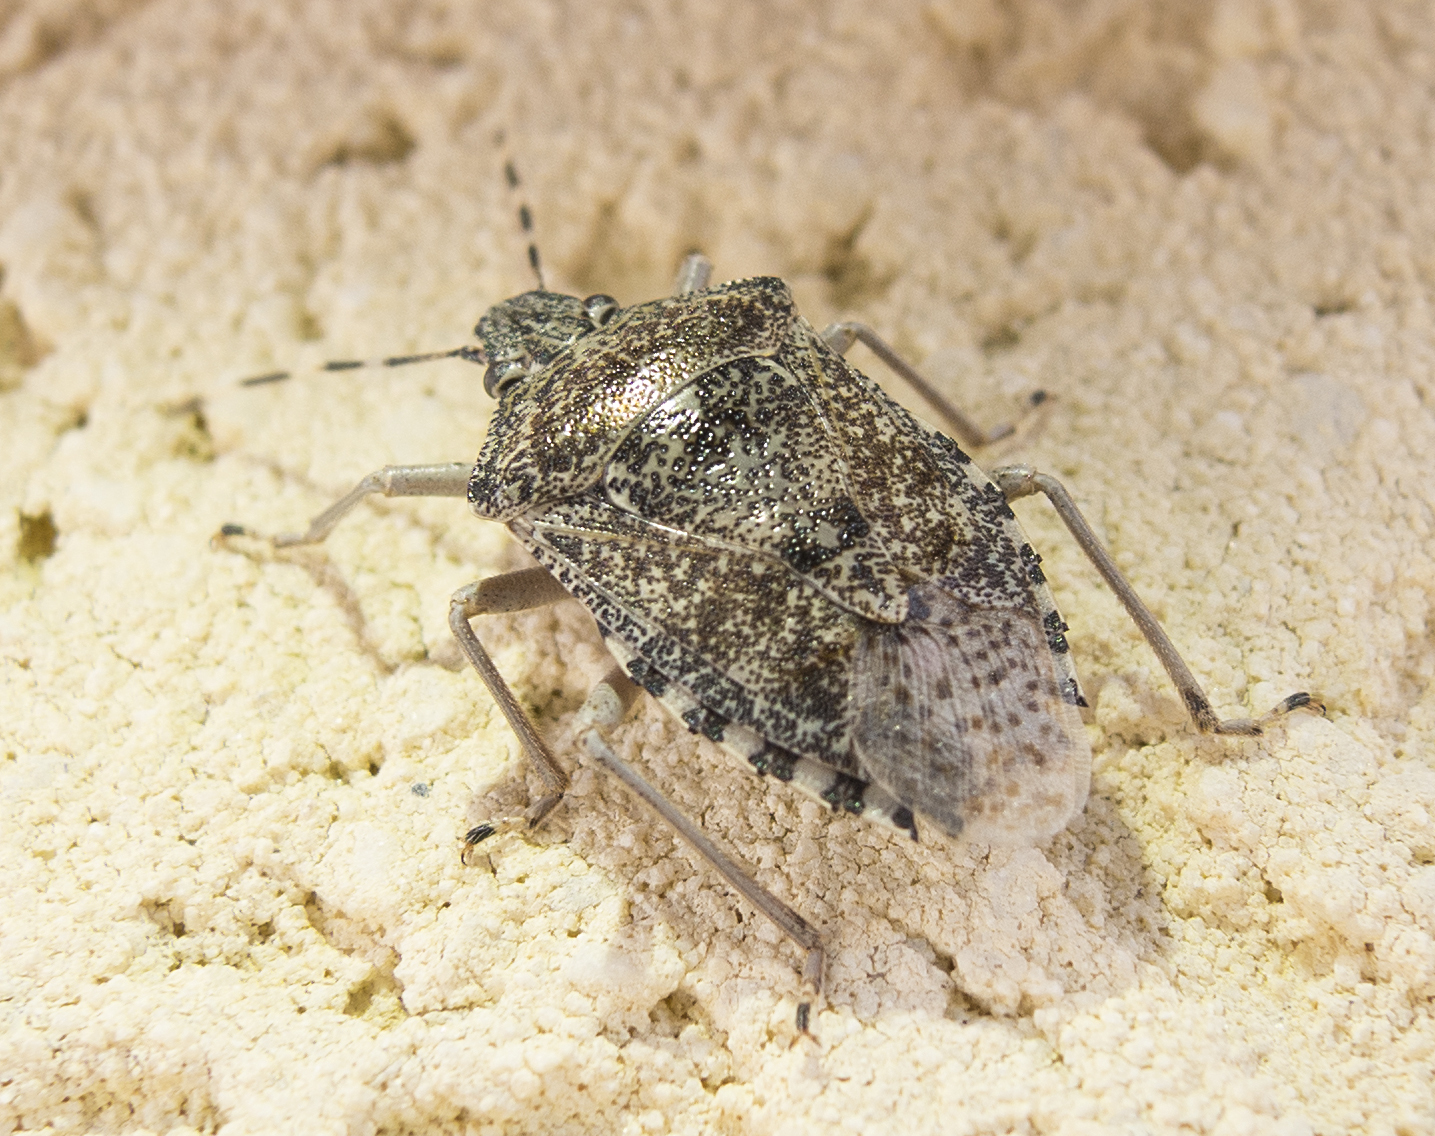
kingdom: Animalia
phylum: Arthropoda
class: Insecta
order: Hemiptera
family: Pentatomidae
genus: Rhaphigaster
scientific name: Rhaphigaster nebulosa
